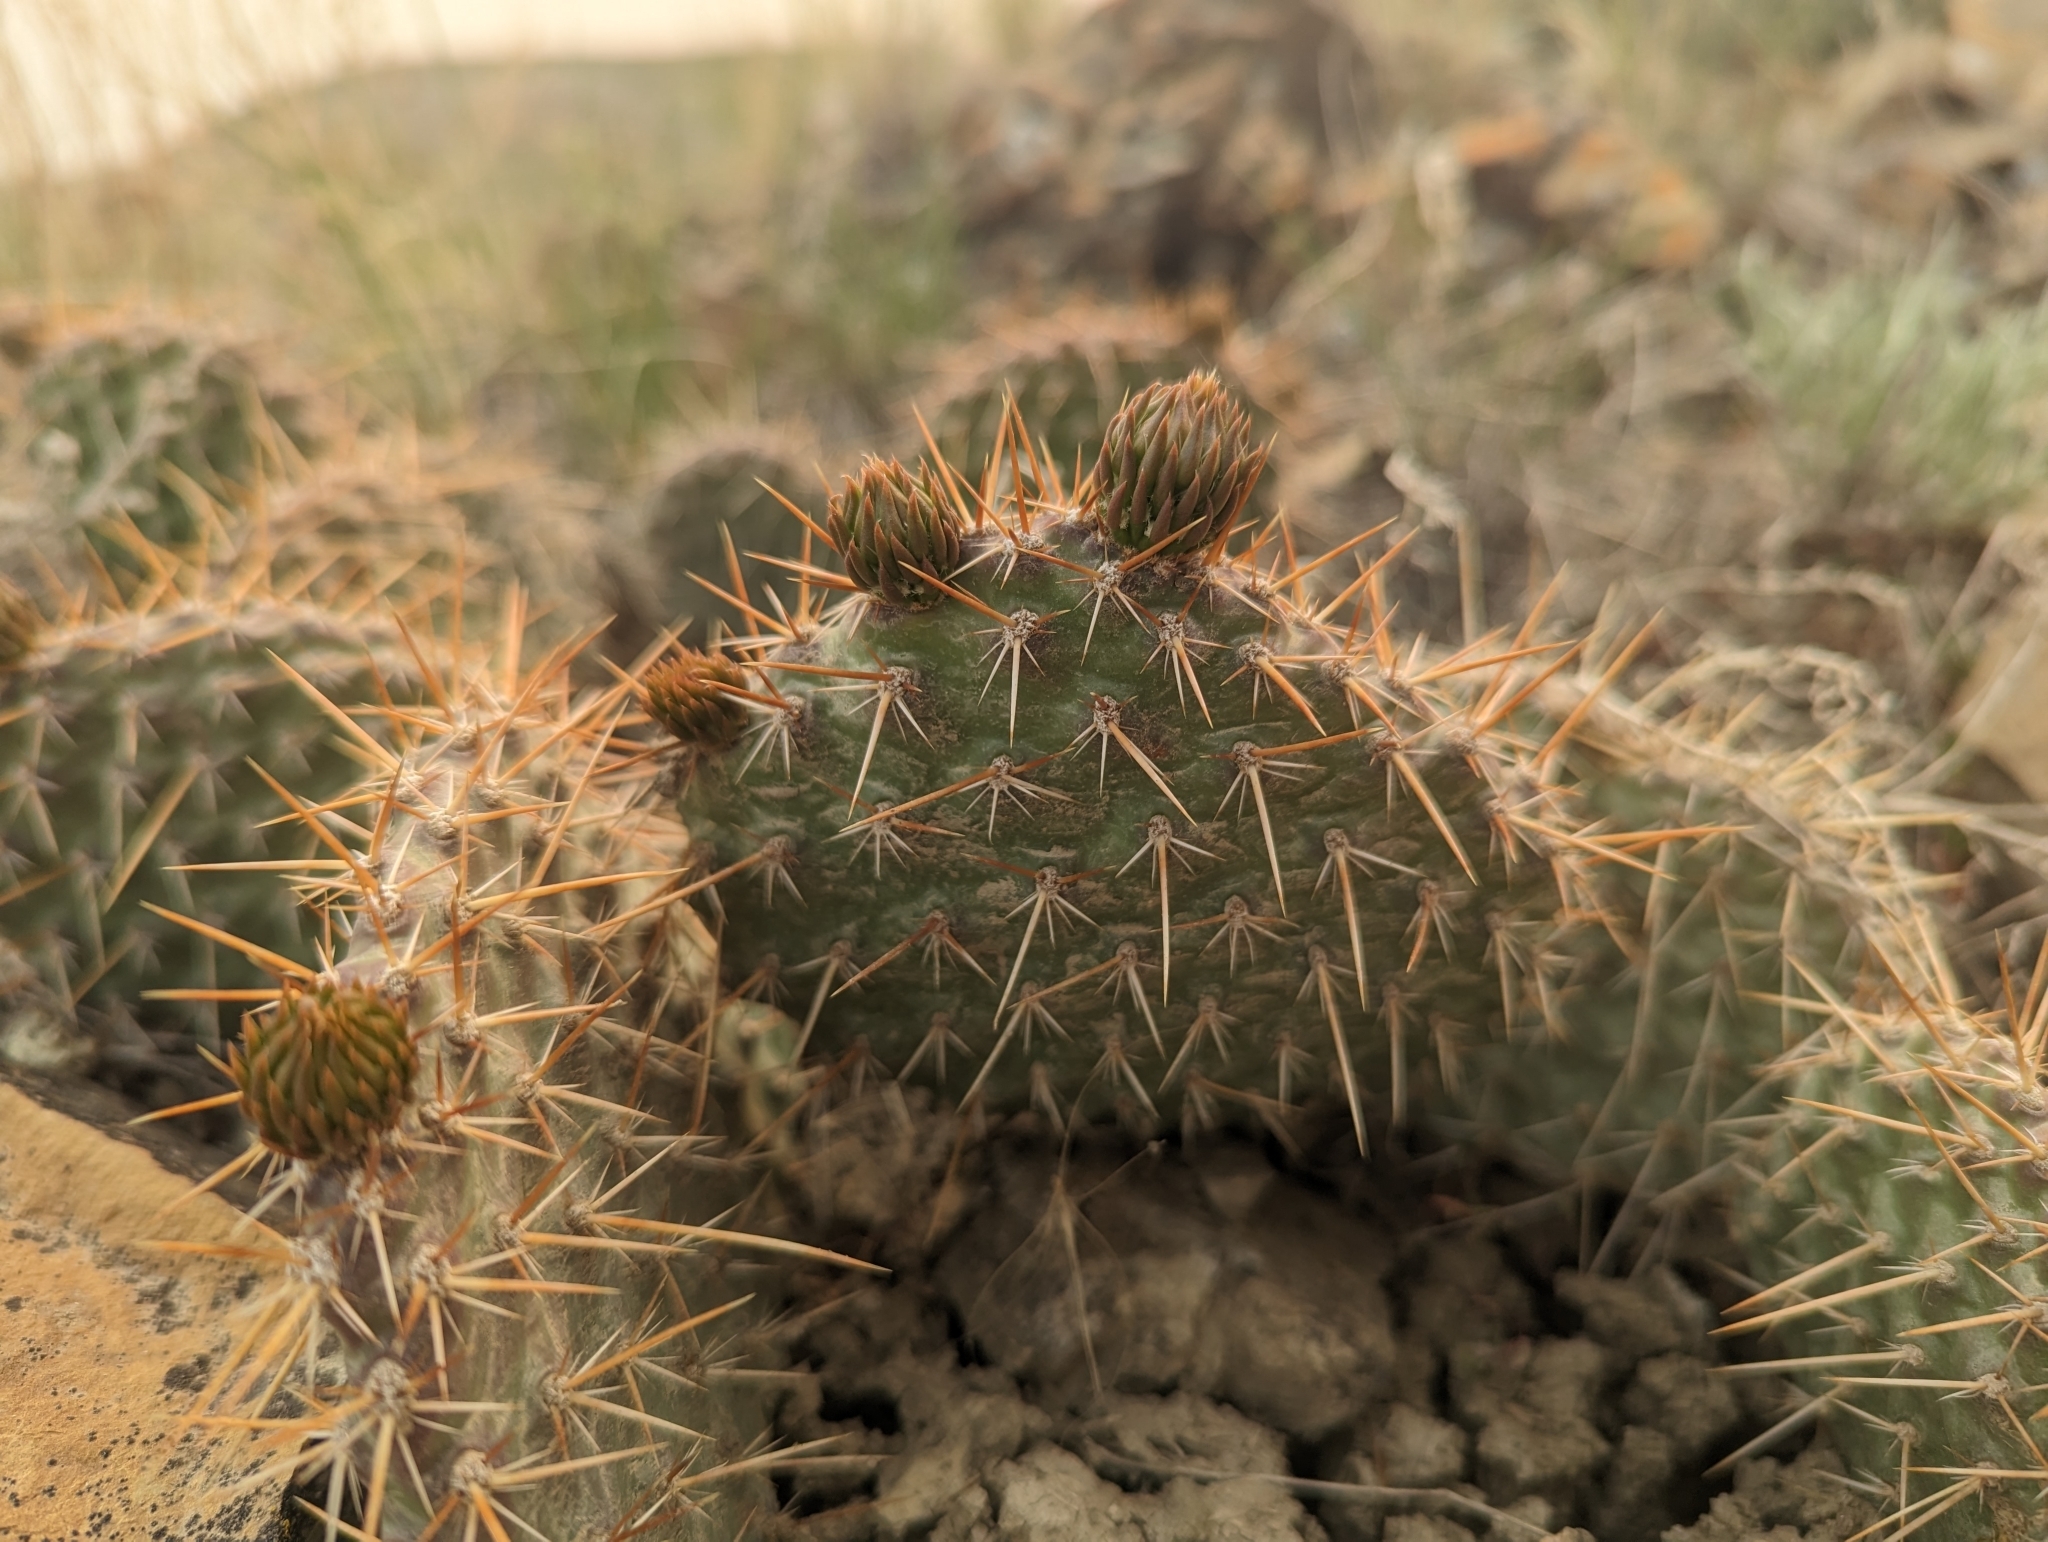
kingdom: Plantae
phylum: Tracheophyta
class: Magnoliopsida
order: Caryophyllales
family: Cactaceae
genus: Opuntia
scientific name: Opuntia polyacantha
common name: Plains prickly-pear
